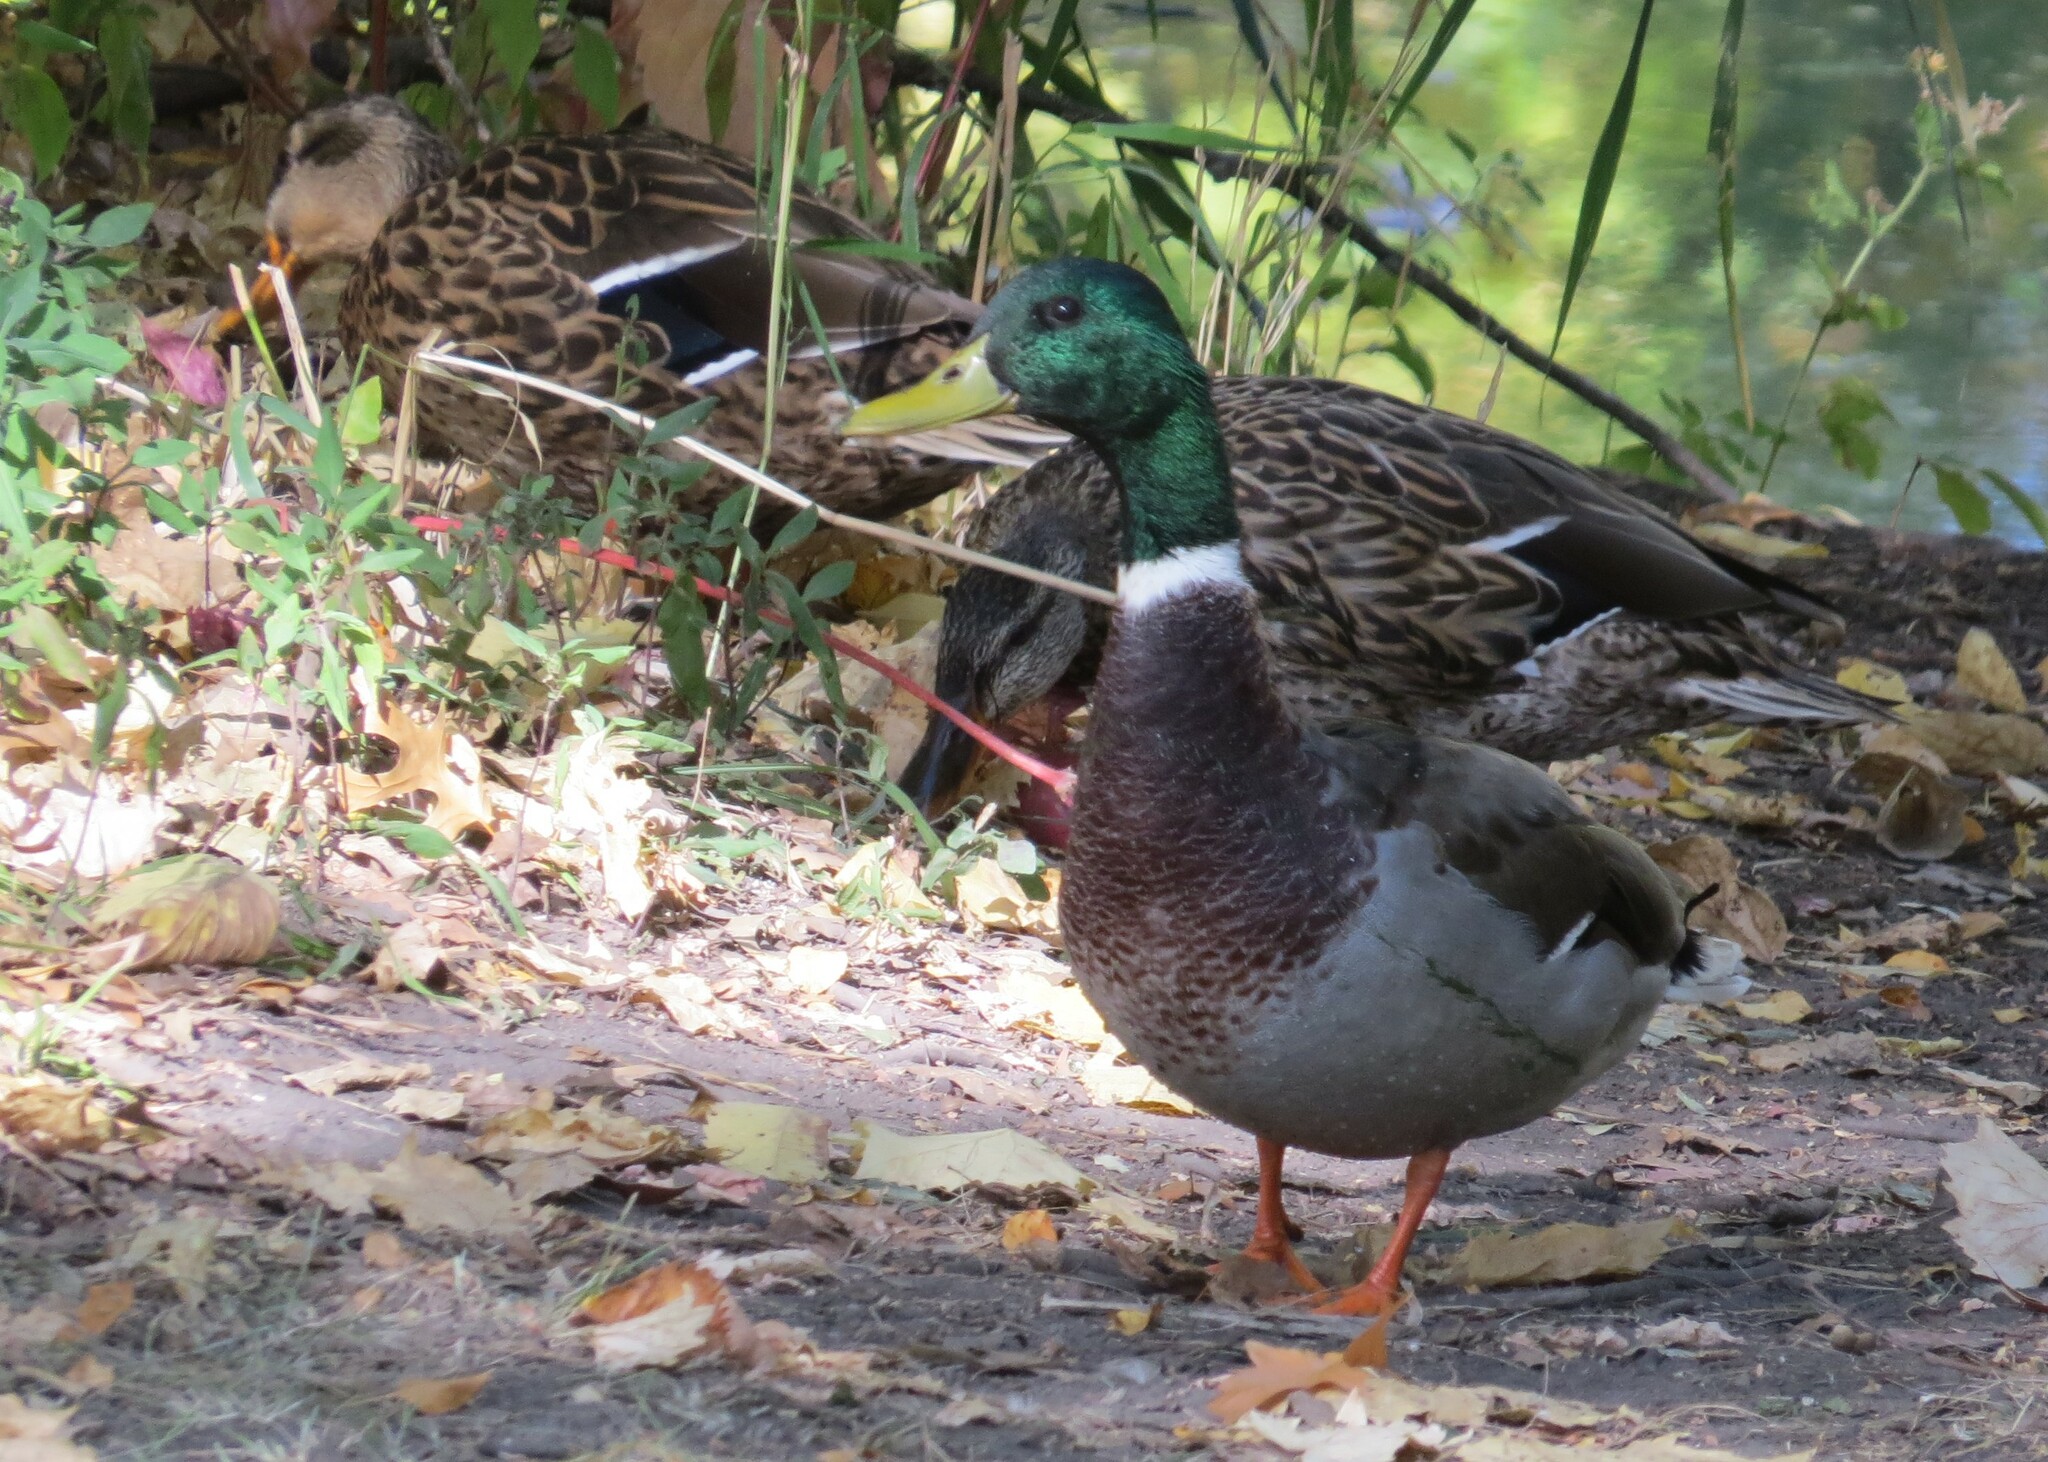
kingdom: Animalia
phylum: Chordata
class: Aves
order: Anseriformes
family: Anatidae
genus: Anas
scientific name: Anas platyrhynchos
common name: Mallard
